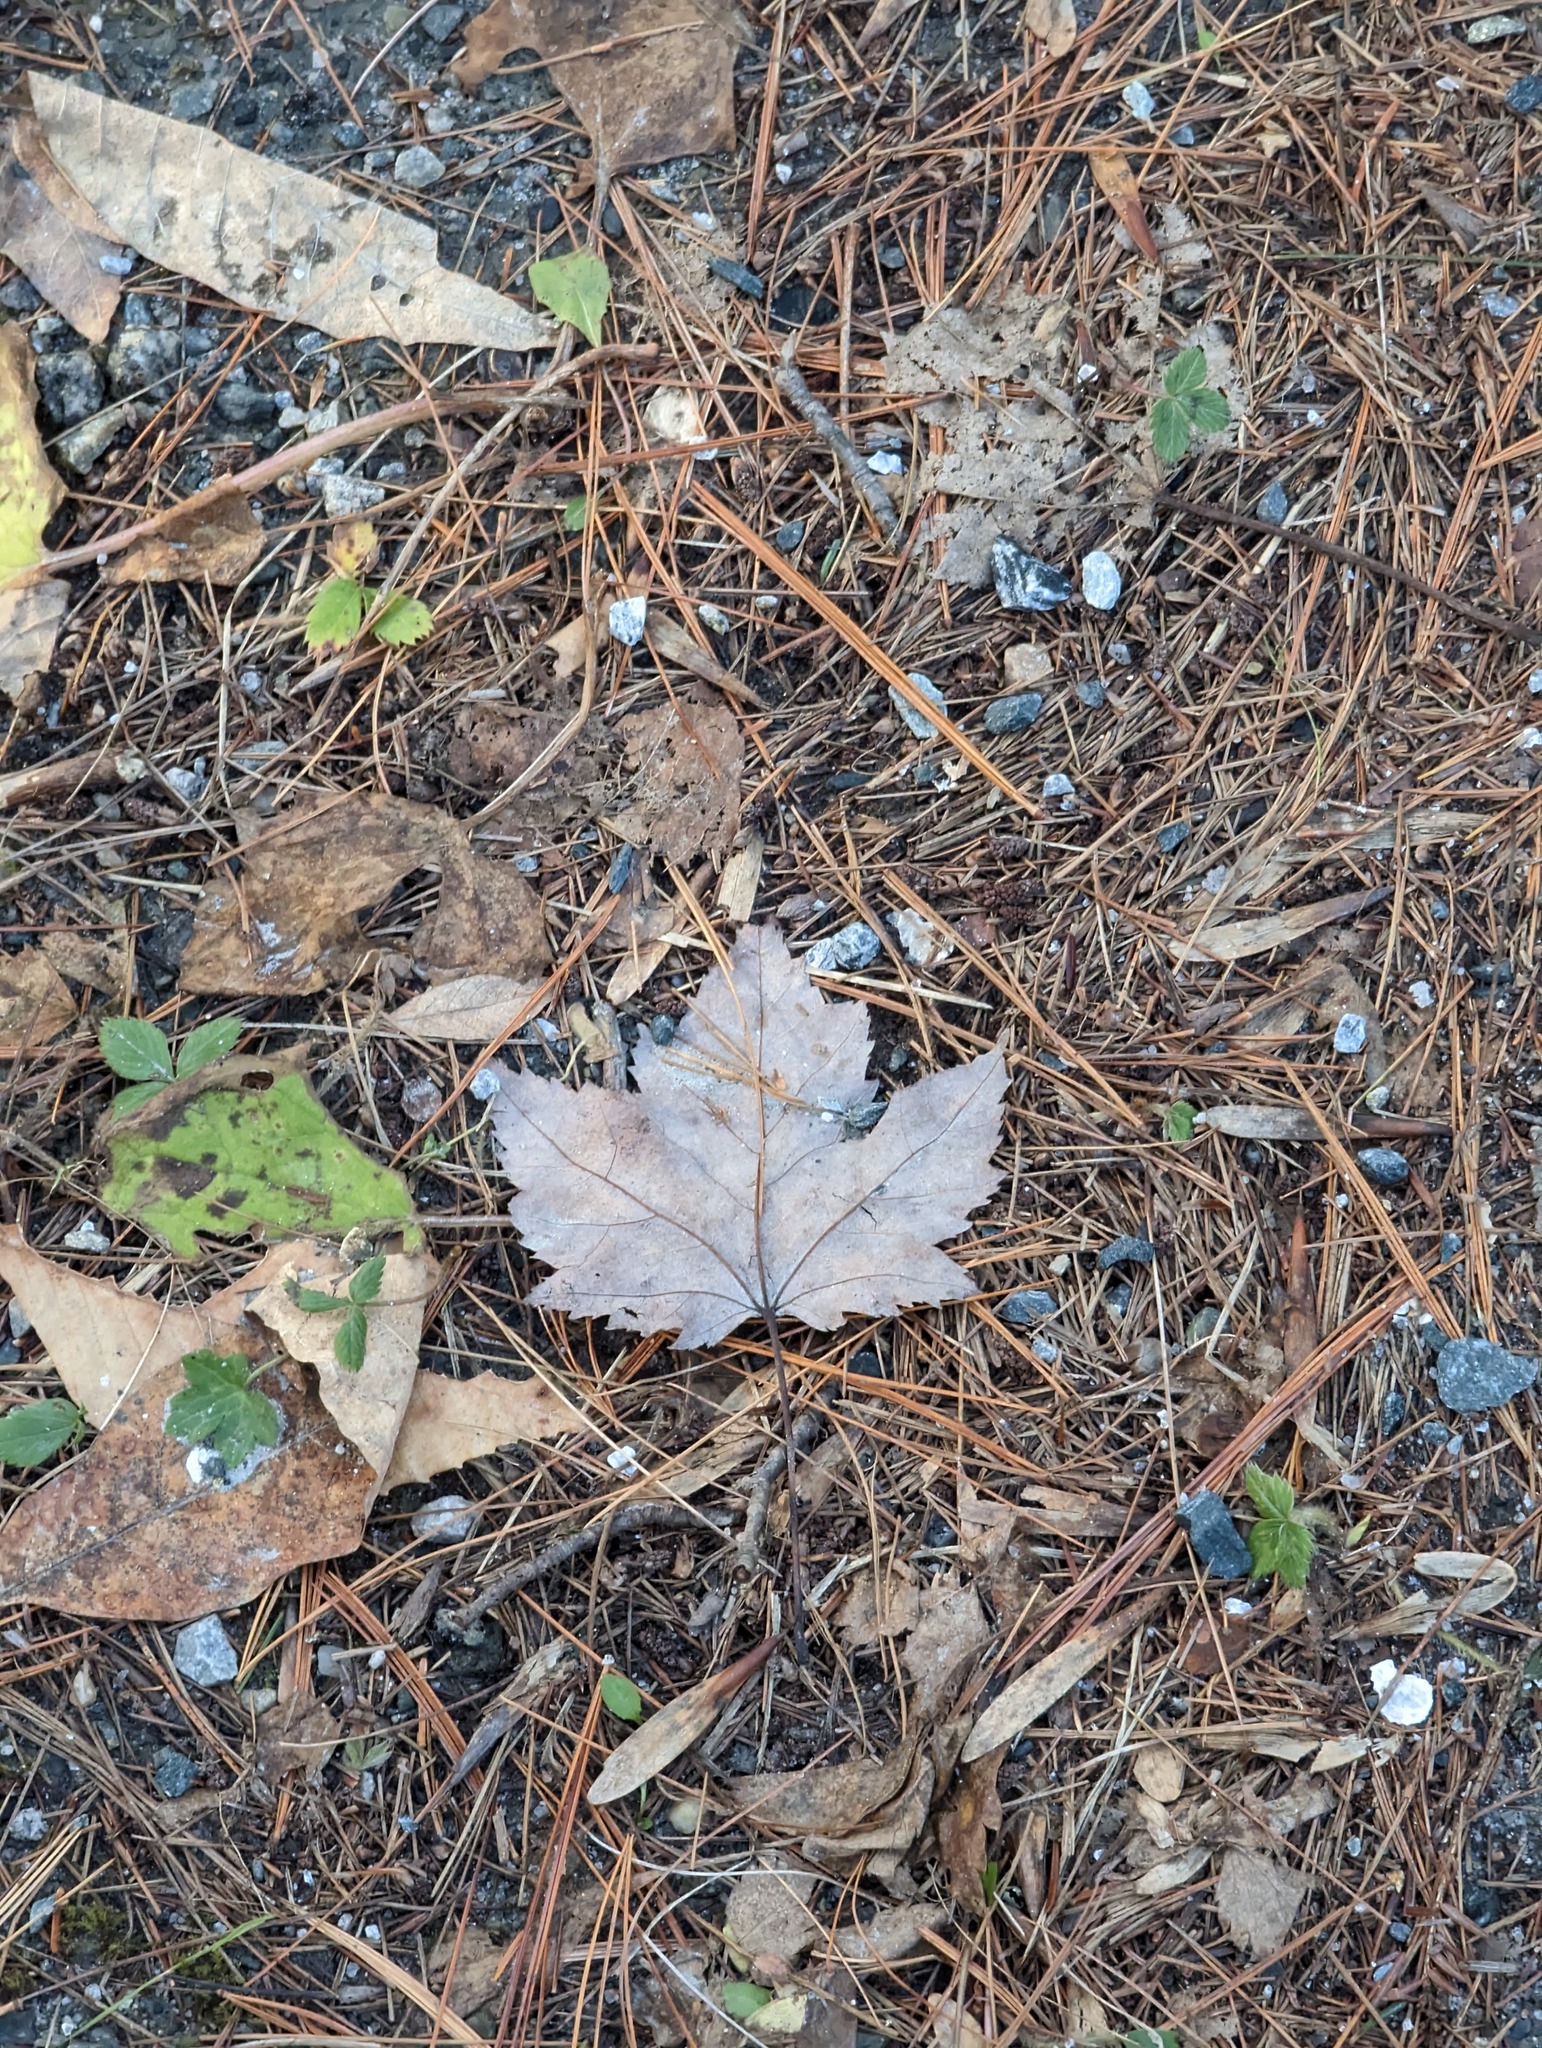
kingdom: Plantae
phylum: Tracheophyta
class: Magnoliopsida
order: Sapindales
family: Sapindaceae
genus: Acer
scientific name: Acer rubrum
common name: Red maple
